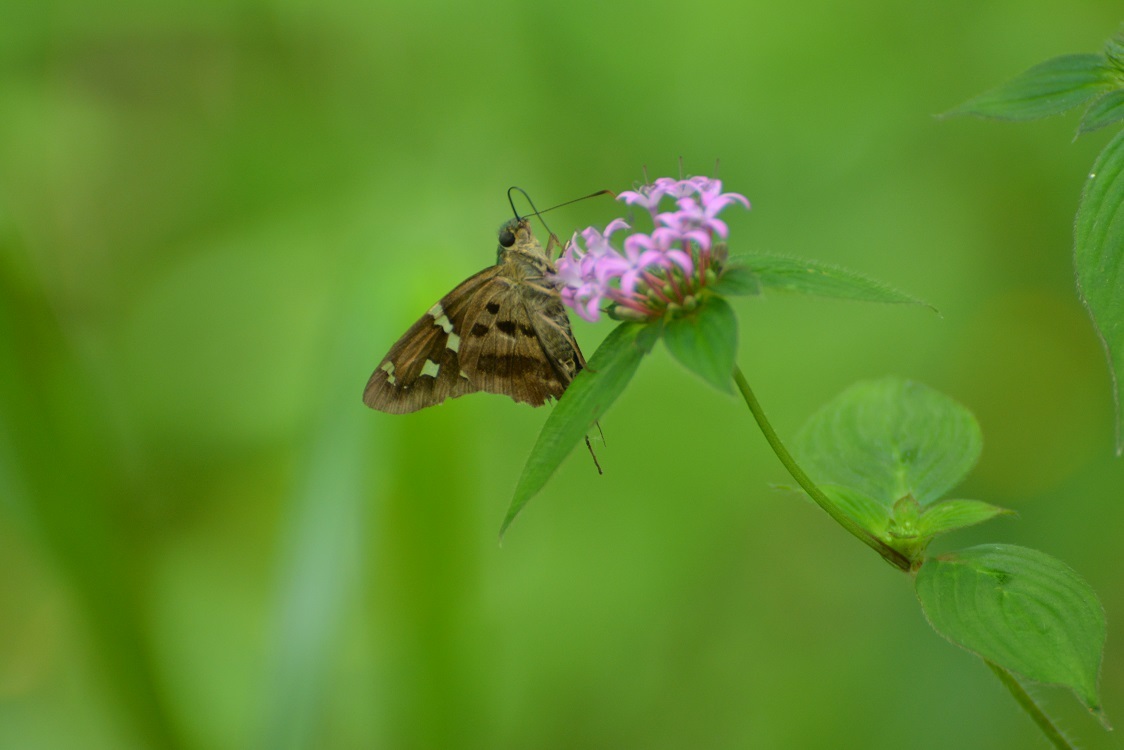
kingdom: Animalia
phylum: Arthropoda
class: Insecta
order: Lepidoptera
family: Hesperiidae
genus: Thorybes
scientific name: Thorybes
